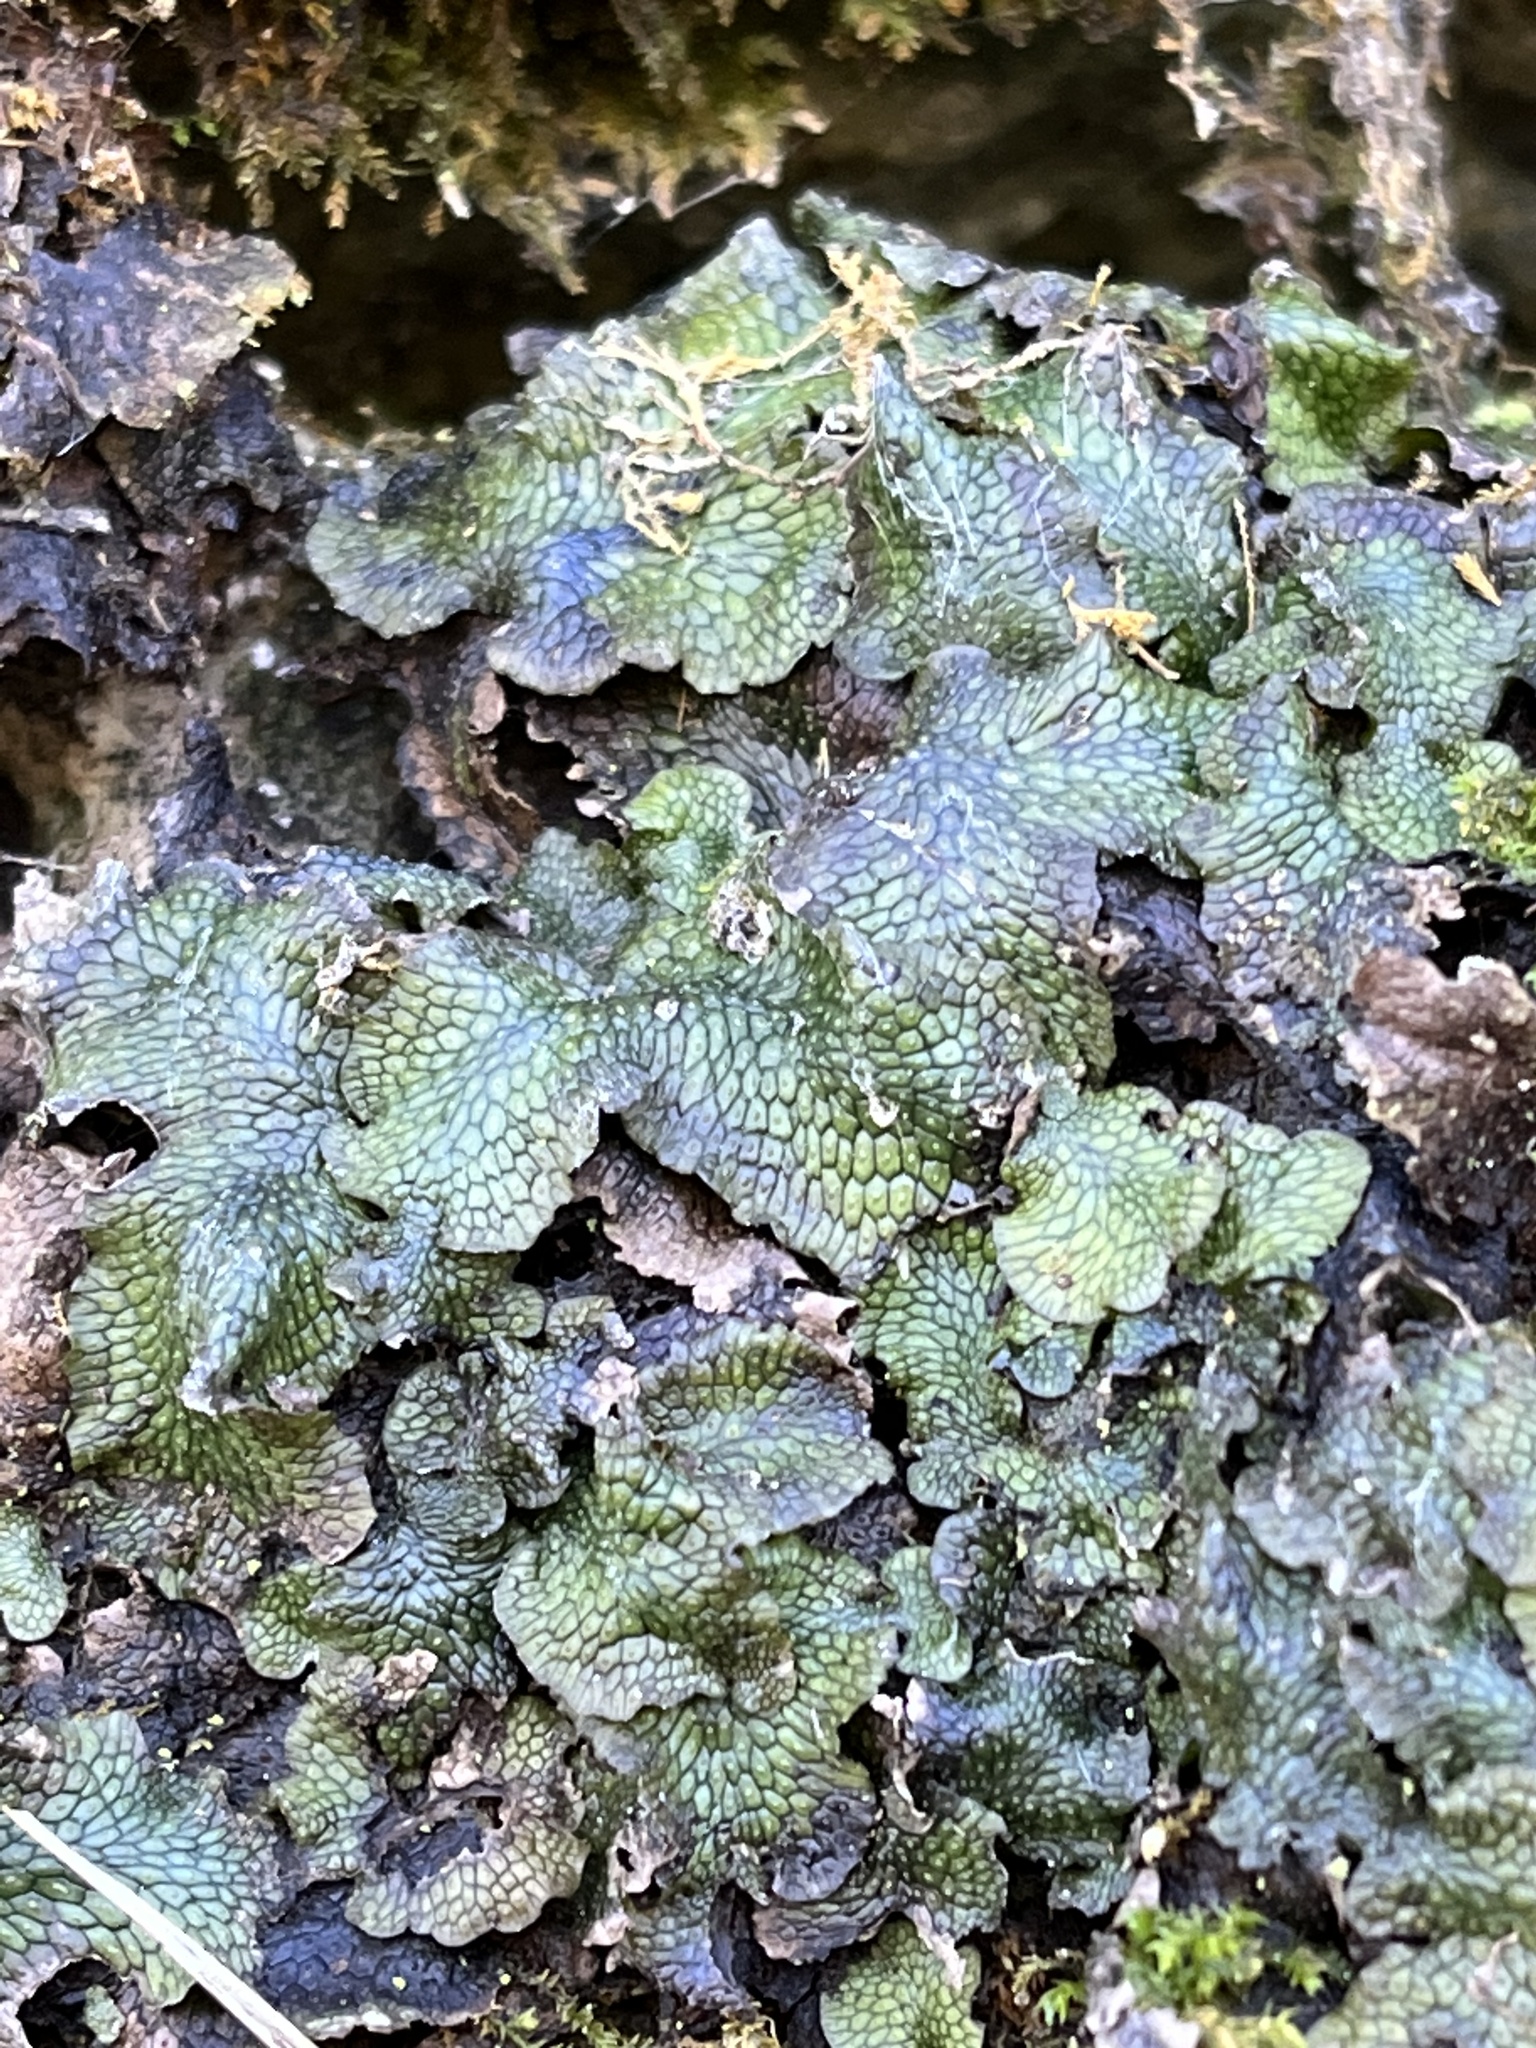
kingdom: Plantae
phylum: Marchantiophyta
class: Marchantiopsida
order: Marchantiales
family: Conocephalaceae
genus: Conocephalum
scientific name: Conocephalum salebrosum
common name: Cat-tongue liverwort
